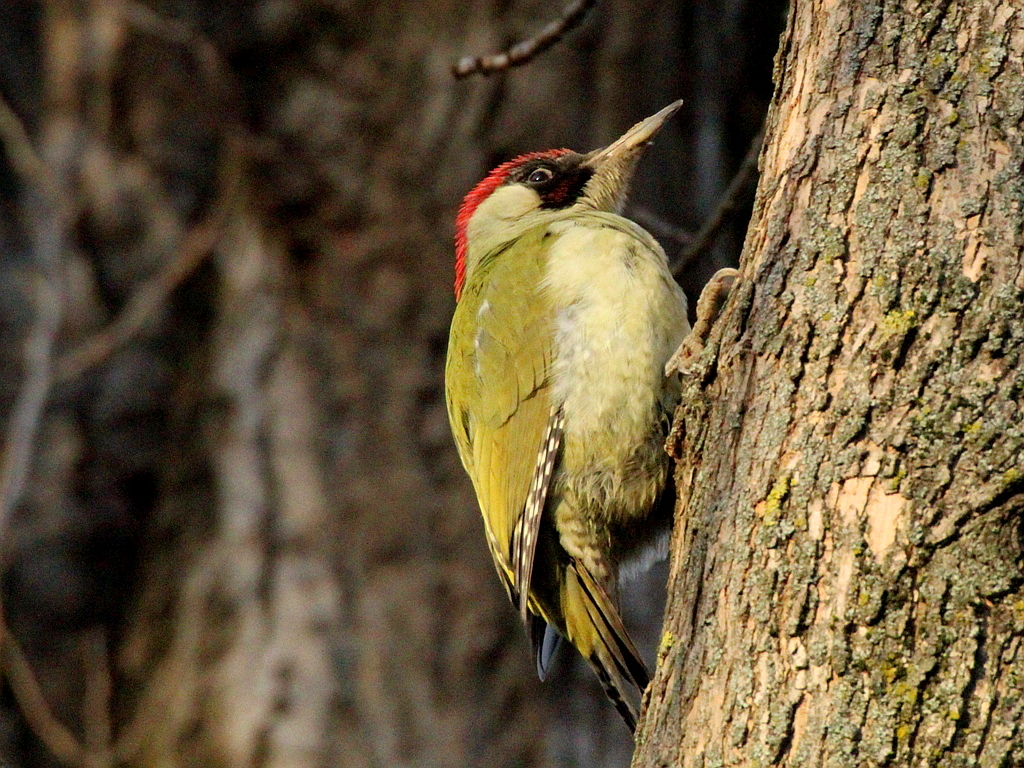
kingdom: Animalia
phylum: Chordata
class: Aves
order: Piciformes
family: Picidae
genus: Picus
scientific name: Picus viridis
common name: European green woodpecker
